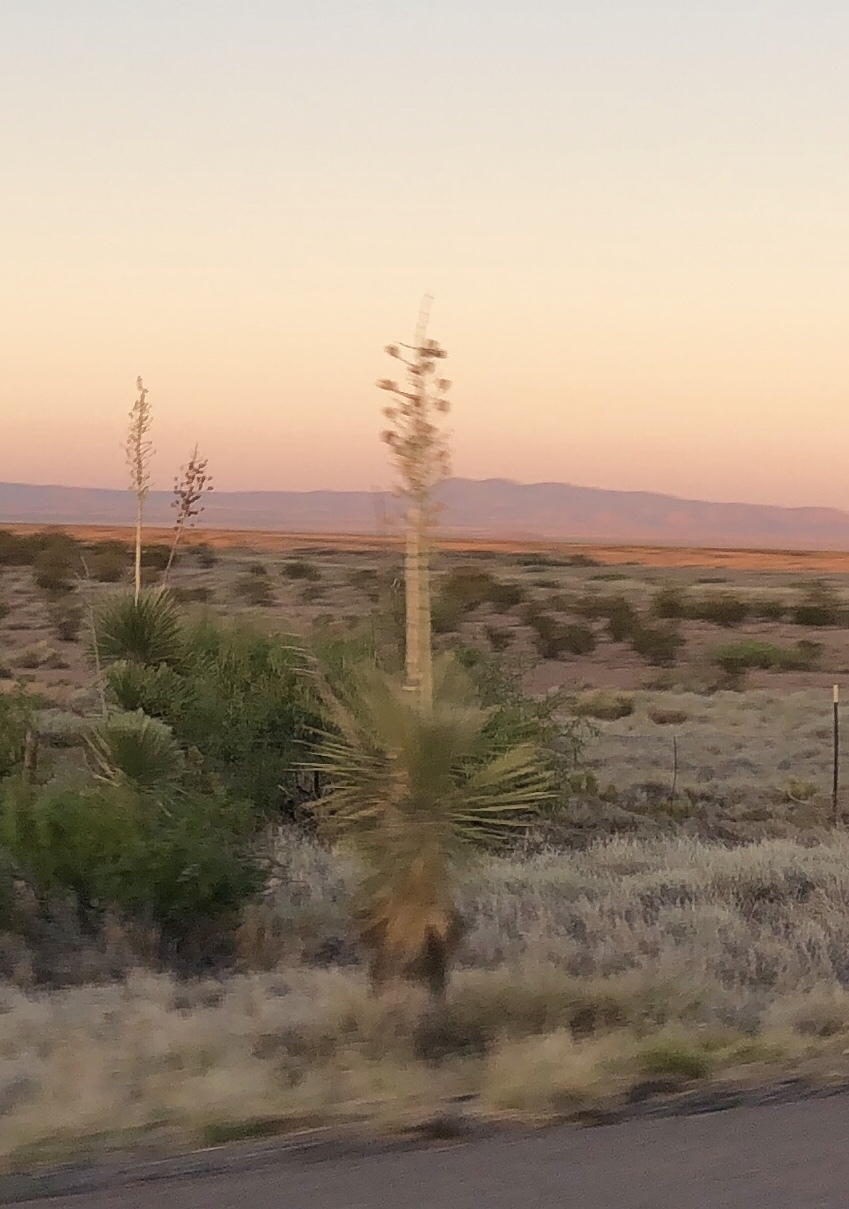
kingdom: Plantae
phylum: Tracheophyta
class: Liliopsida
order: Asparagales
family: Asparagaceae
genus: Yucca
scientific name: Yucca elata
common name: Palmella
